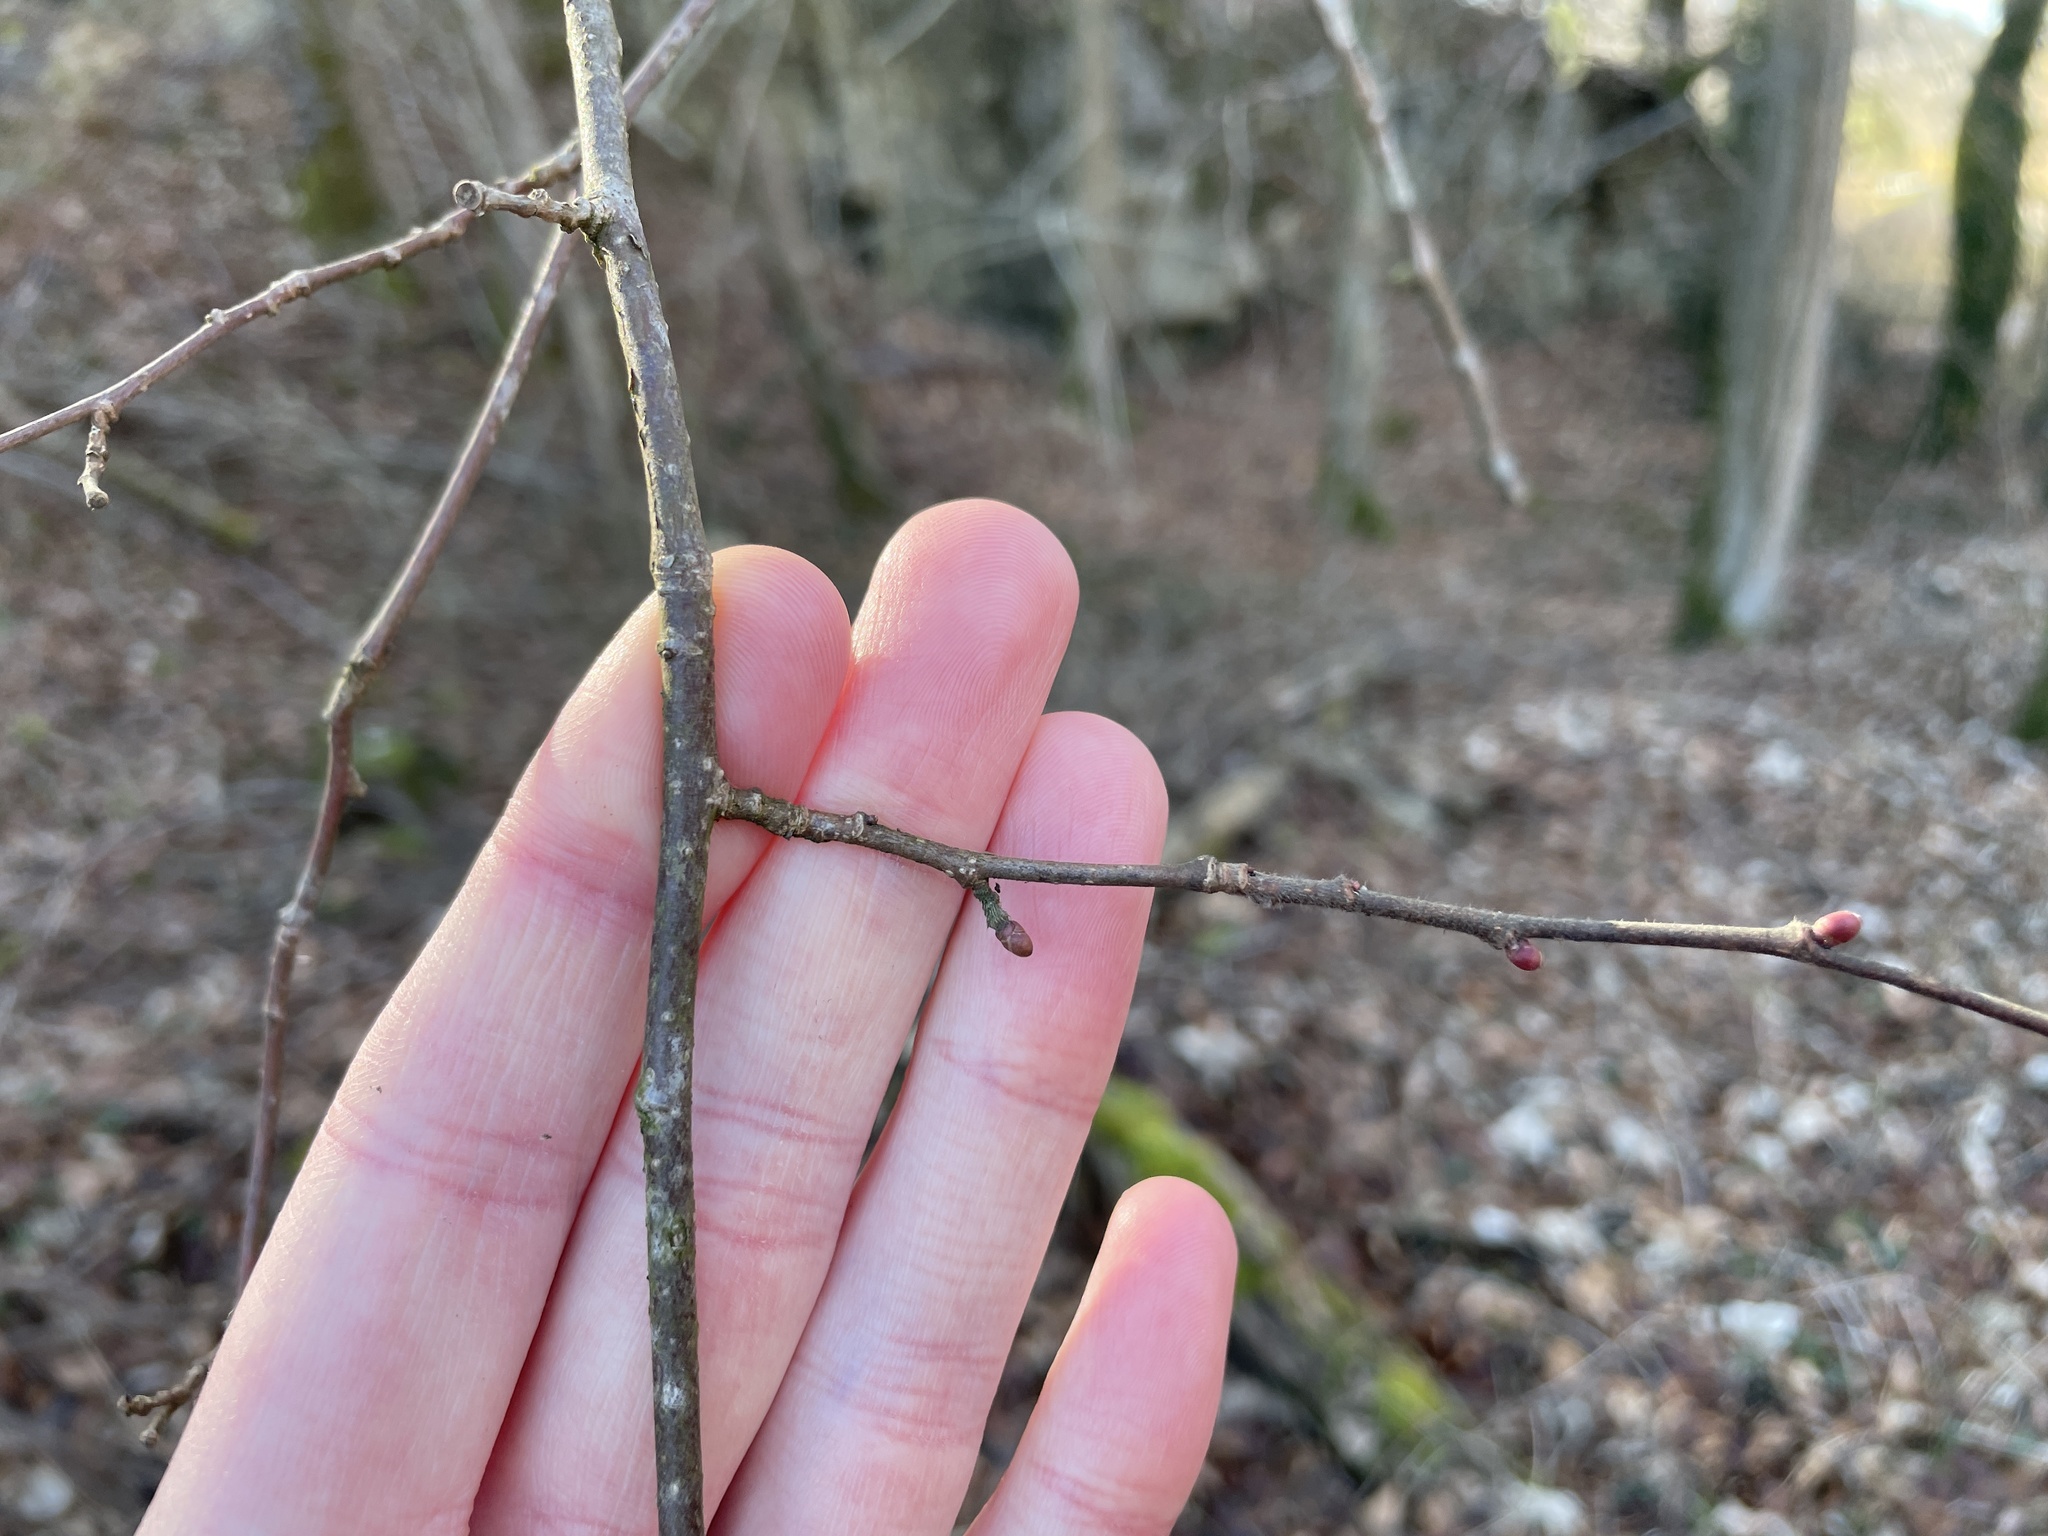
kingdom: Plantae
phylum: Tracheophyta
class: Magnoliopsida
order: Fagales
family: Betulaceae
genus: Corylus
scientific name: Corylus avellana
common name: European hazel
